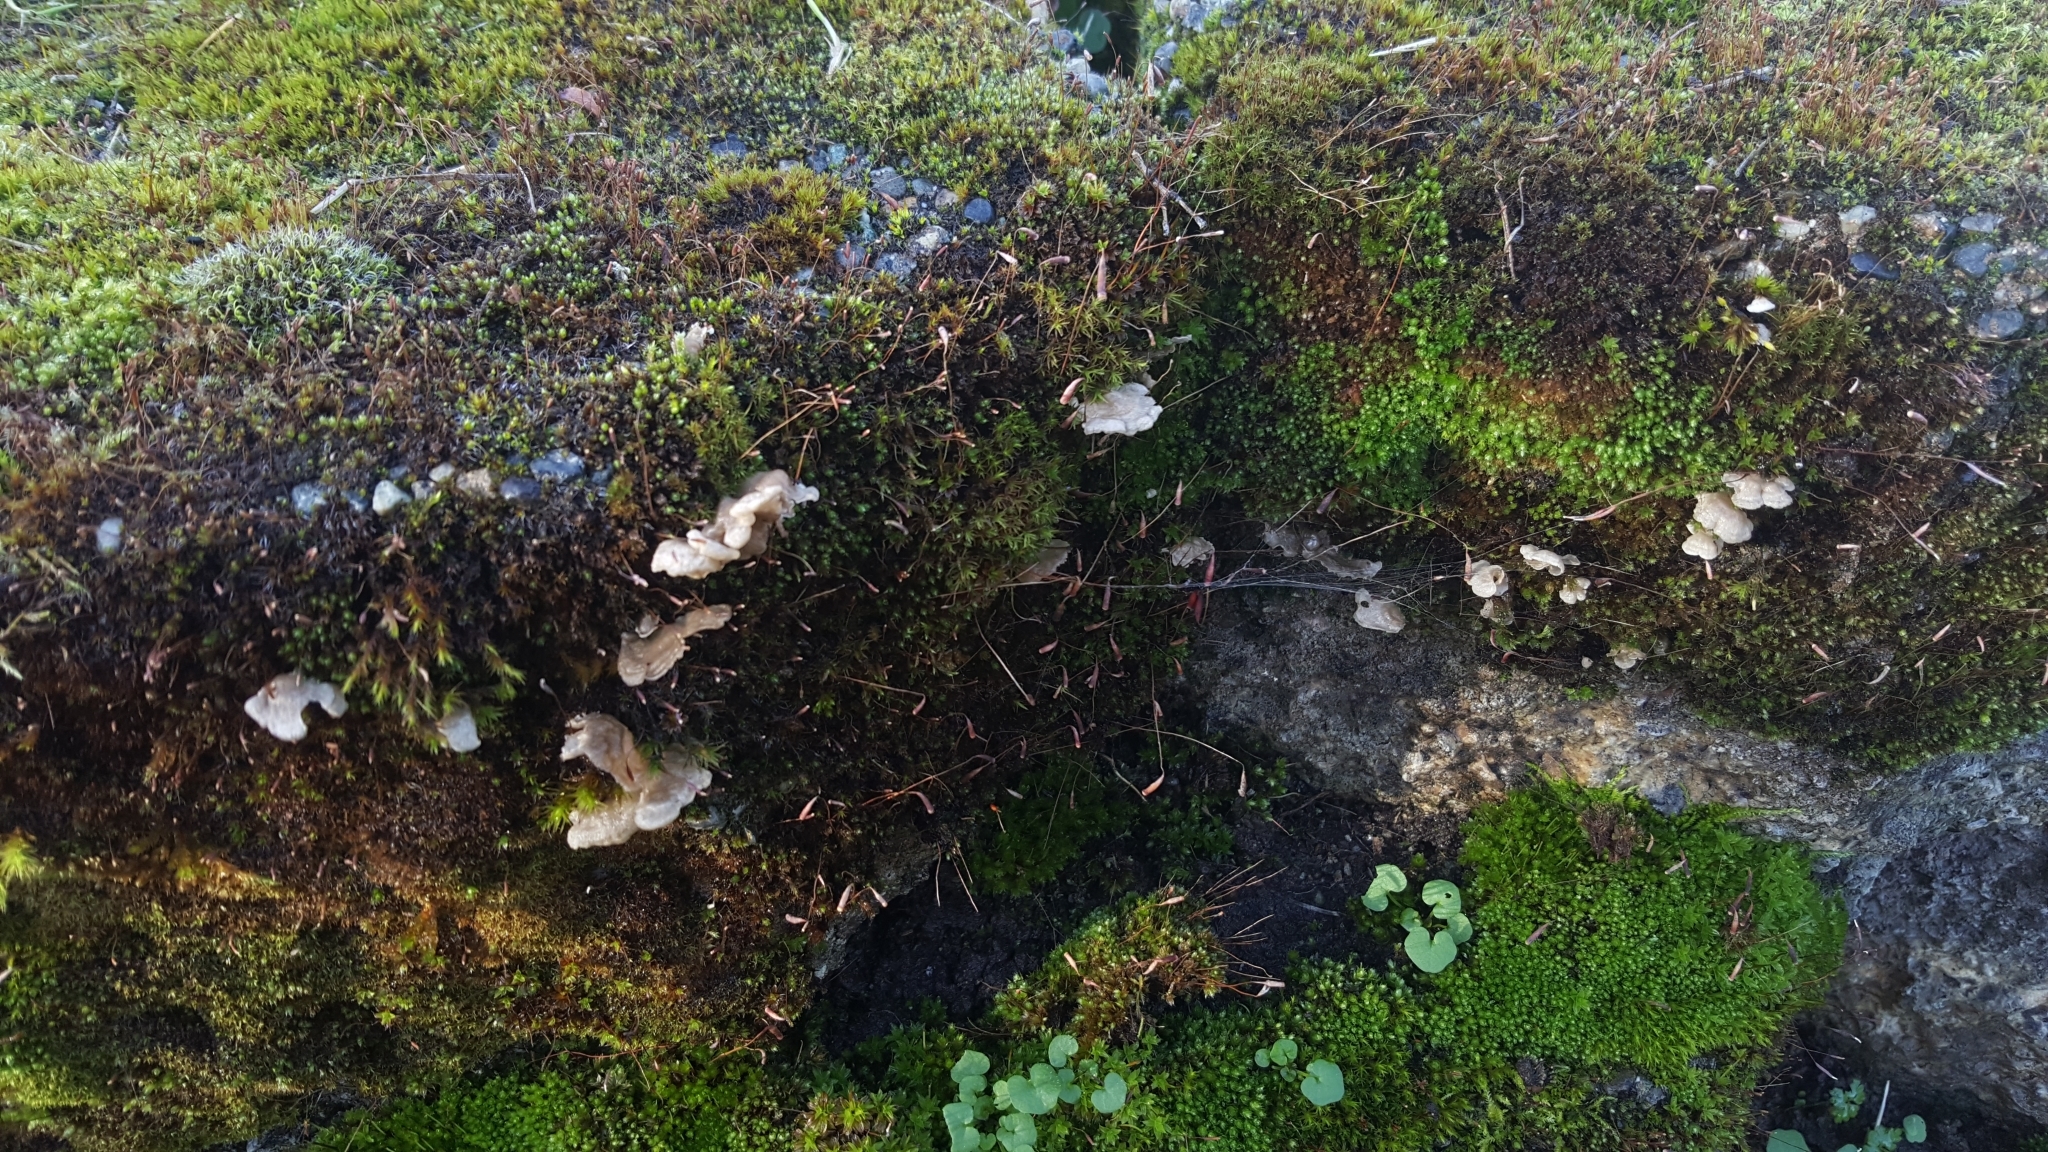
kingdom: Fungi
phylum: Basidiomycota
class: Agaricomycetes
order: Agaricales
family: Hygrophoraceae
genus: Arrhenia
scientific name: Arrhenia retiruga
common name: Small moss oysterling
